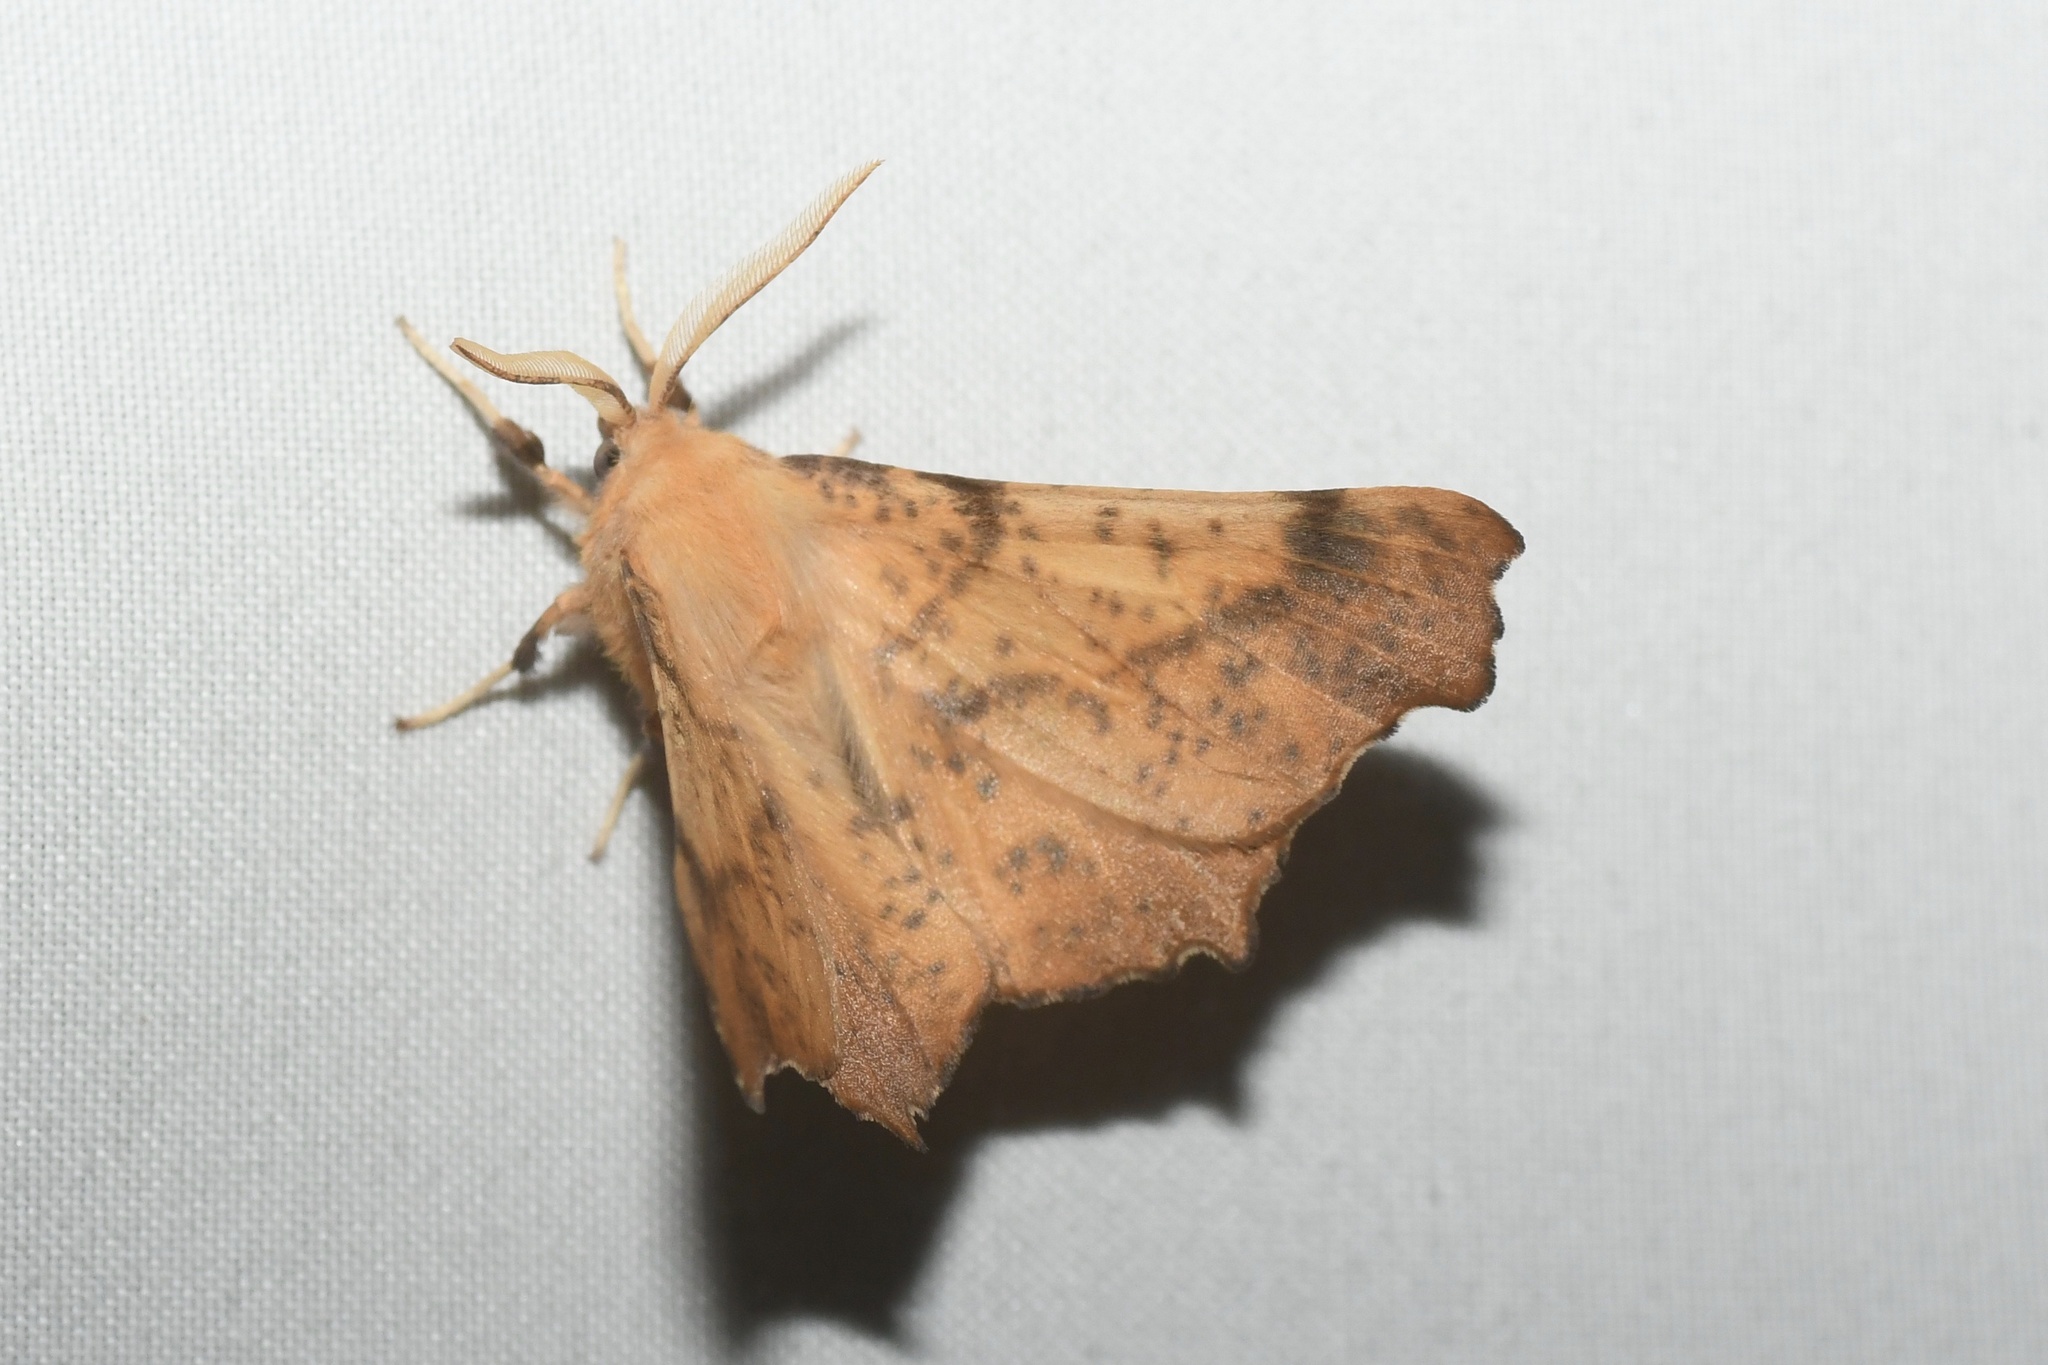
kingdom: Animalia
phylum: Arthropoda
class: Insecta
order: Lepidoptera
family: Geometridae
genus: Ennomos
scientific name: Ennomos magnaria
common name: Maple spanworm
